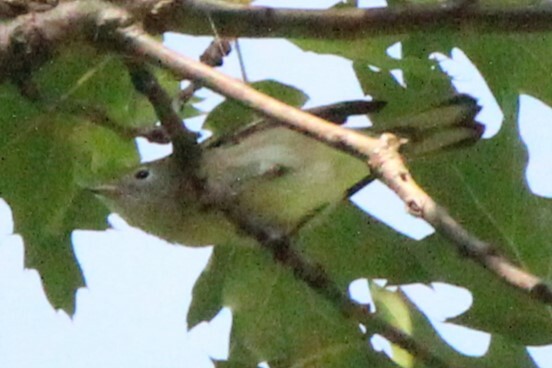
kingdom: Animalia
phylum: Chordata
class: Aves
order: Passeriformes
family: Parulidae
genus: Setophaga
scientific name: Setophaga pensylvanica
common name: Chestnut-sided warbler
